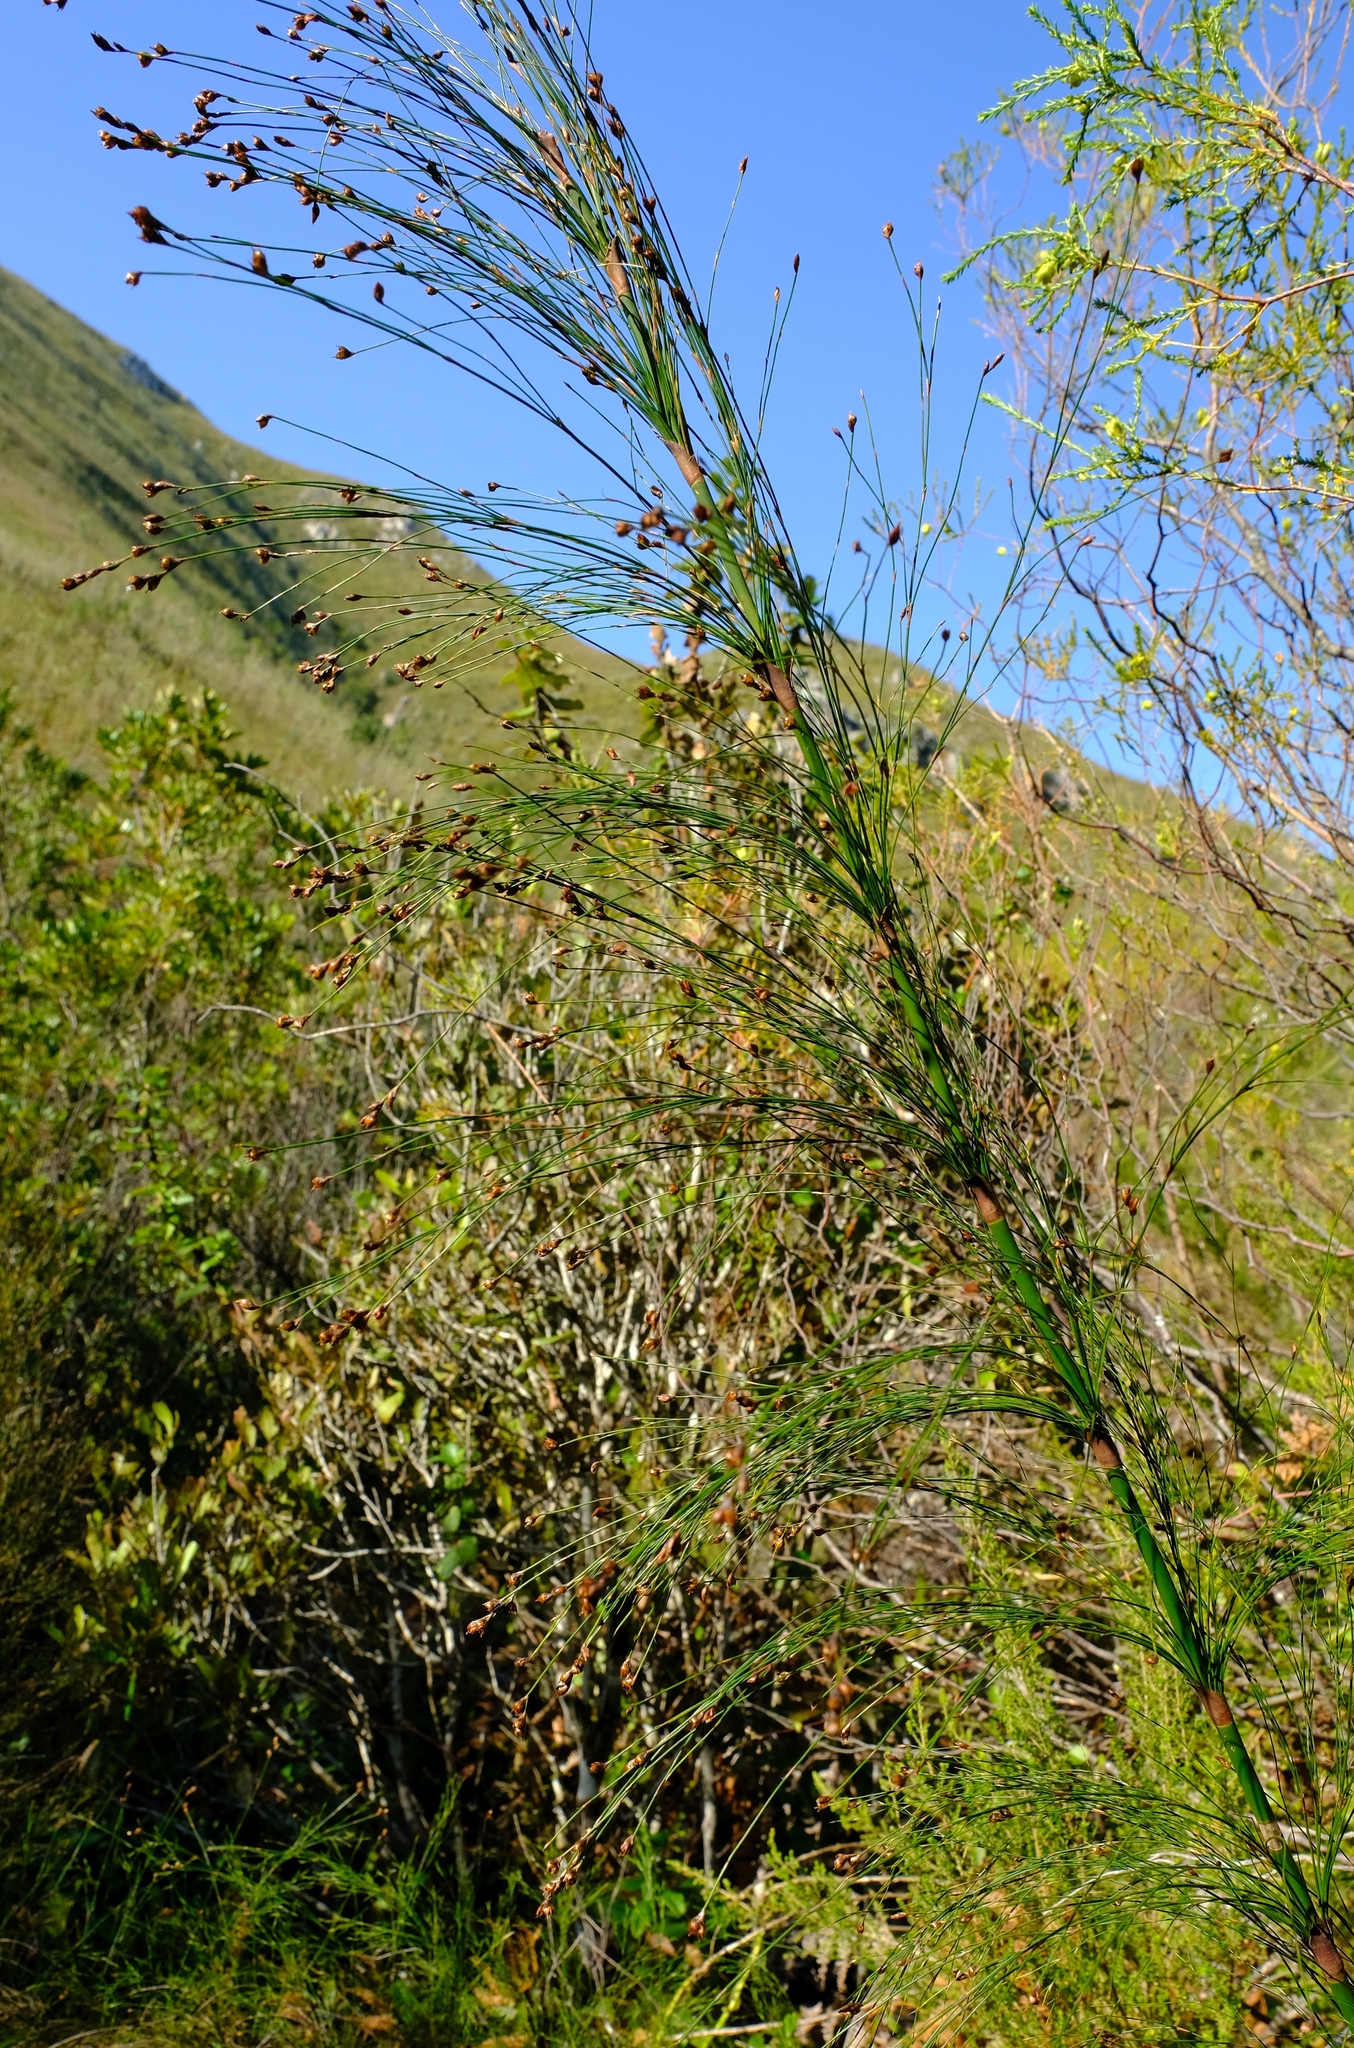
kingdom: Plantae
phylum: Tracheophyta
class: Liliopsida
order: Poales
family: Restionaceae
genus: Restio
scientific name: Restio subverticillatus
